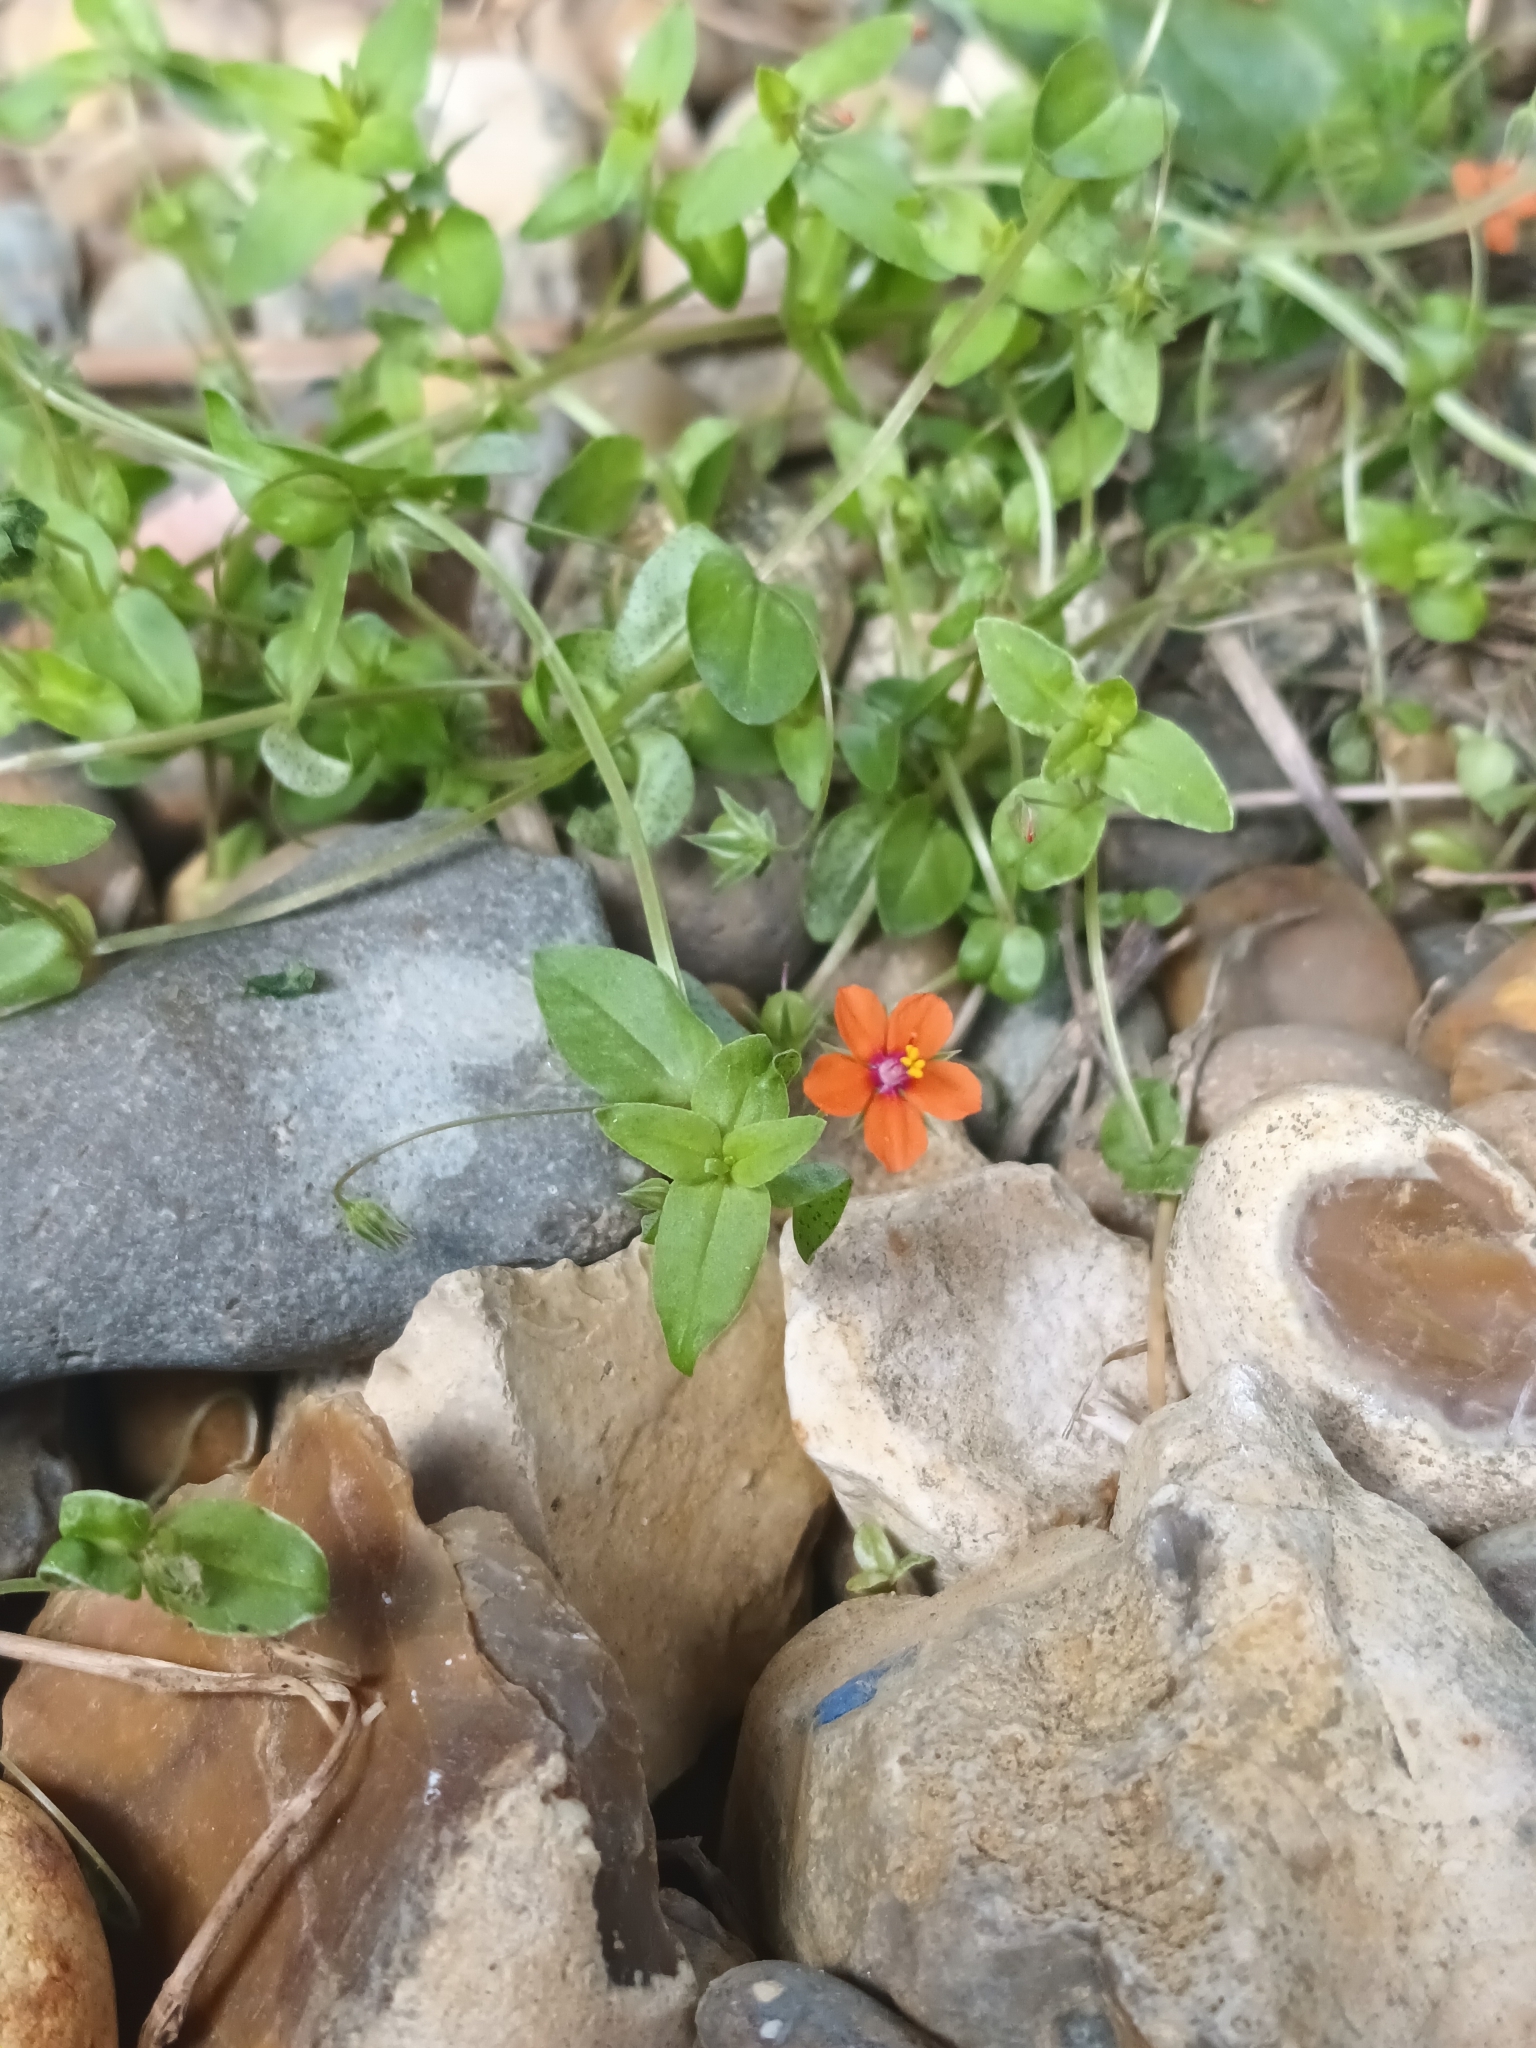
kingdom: Plantae
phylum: Tracheophyta
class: Magnoliopsida
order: Ericales
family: Primulaceae
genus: Lysimachia
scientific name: Lysimachia arvensis
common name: Scarlet pimpernel
